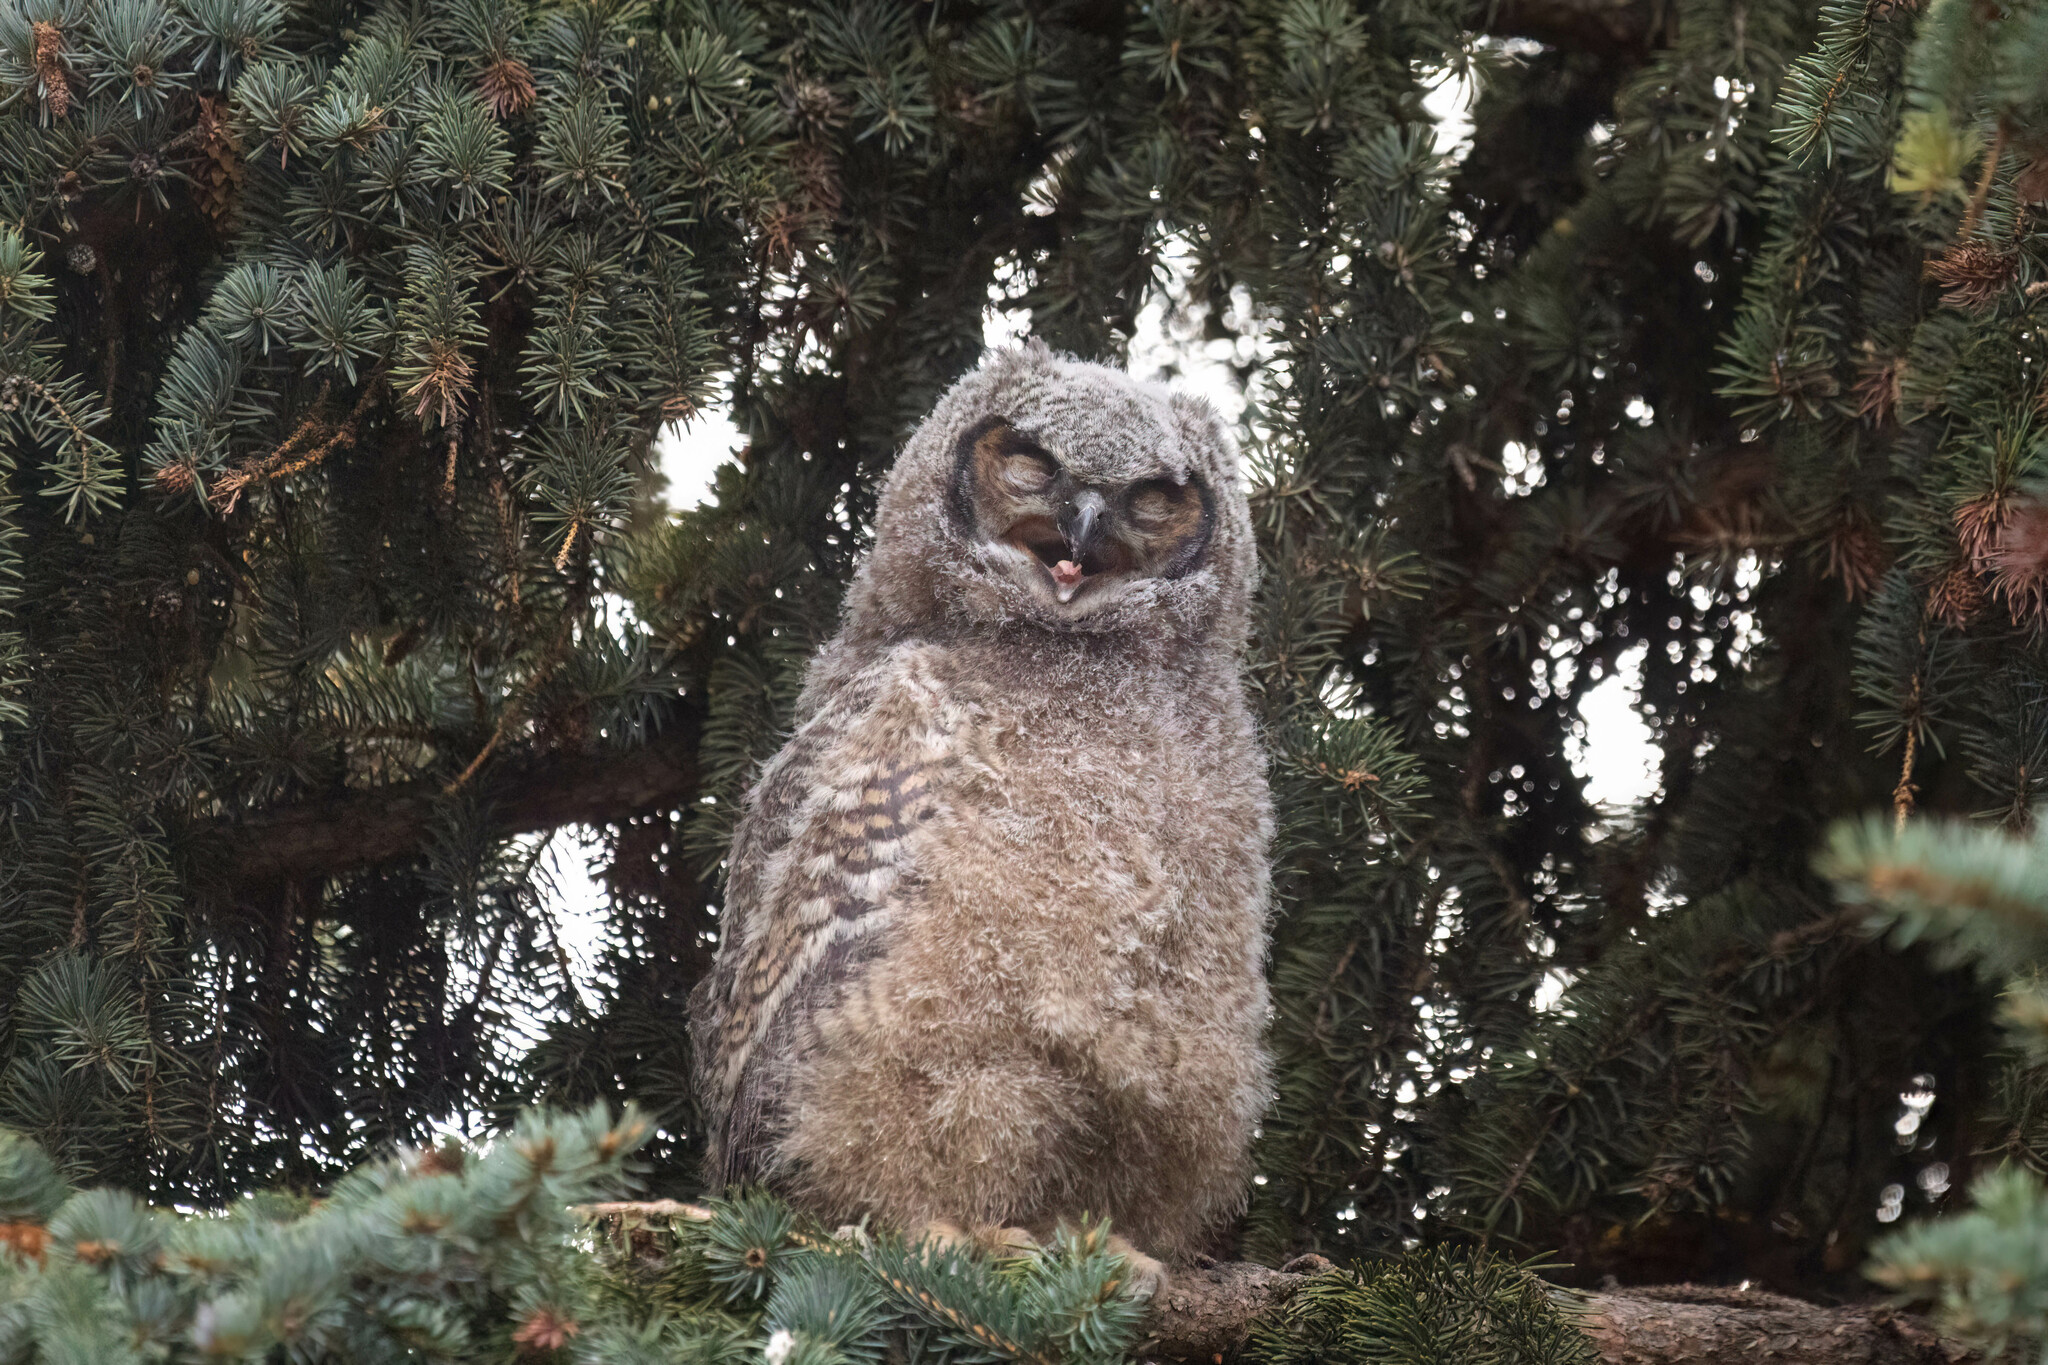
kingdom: Animalia
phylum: Chordata
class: Aves
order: Strigiformes
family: Strigidae
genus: Bubo
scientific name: Bubo virginianus
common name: Great horned owl
